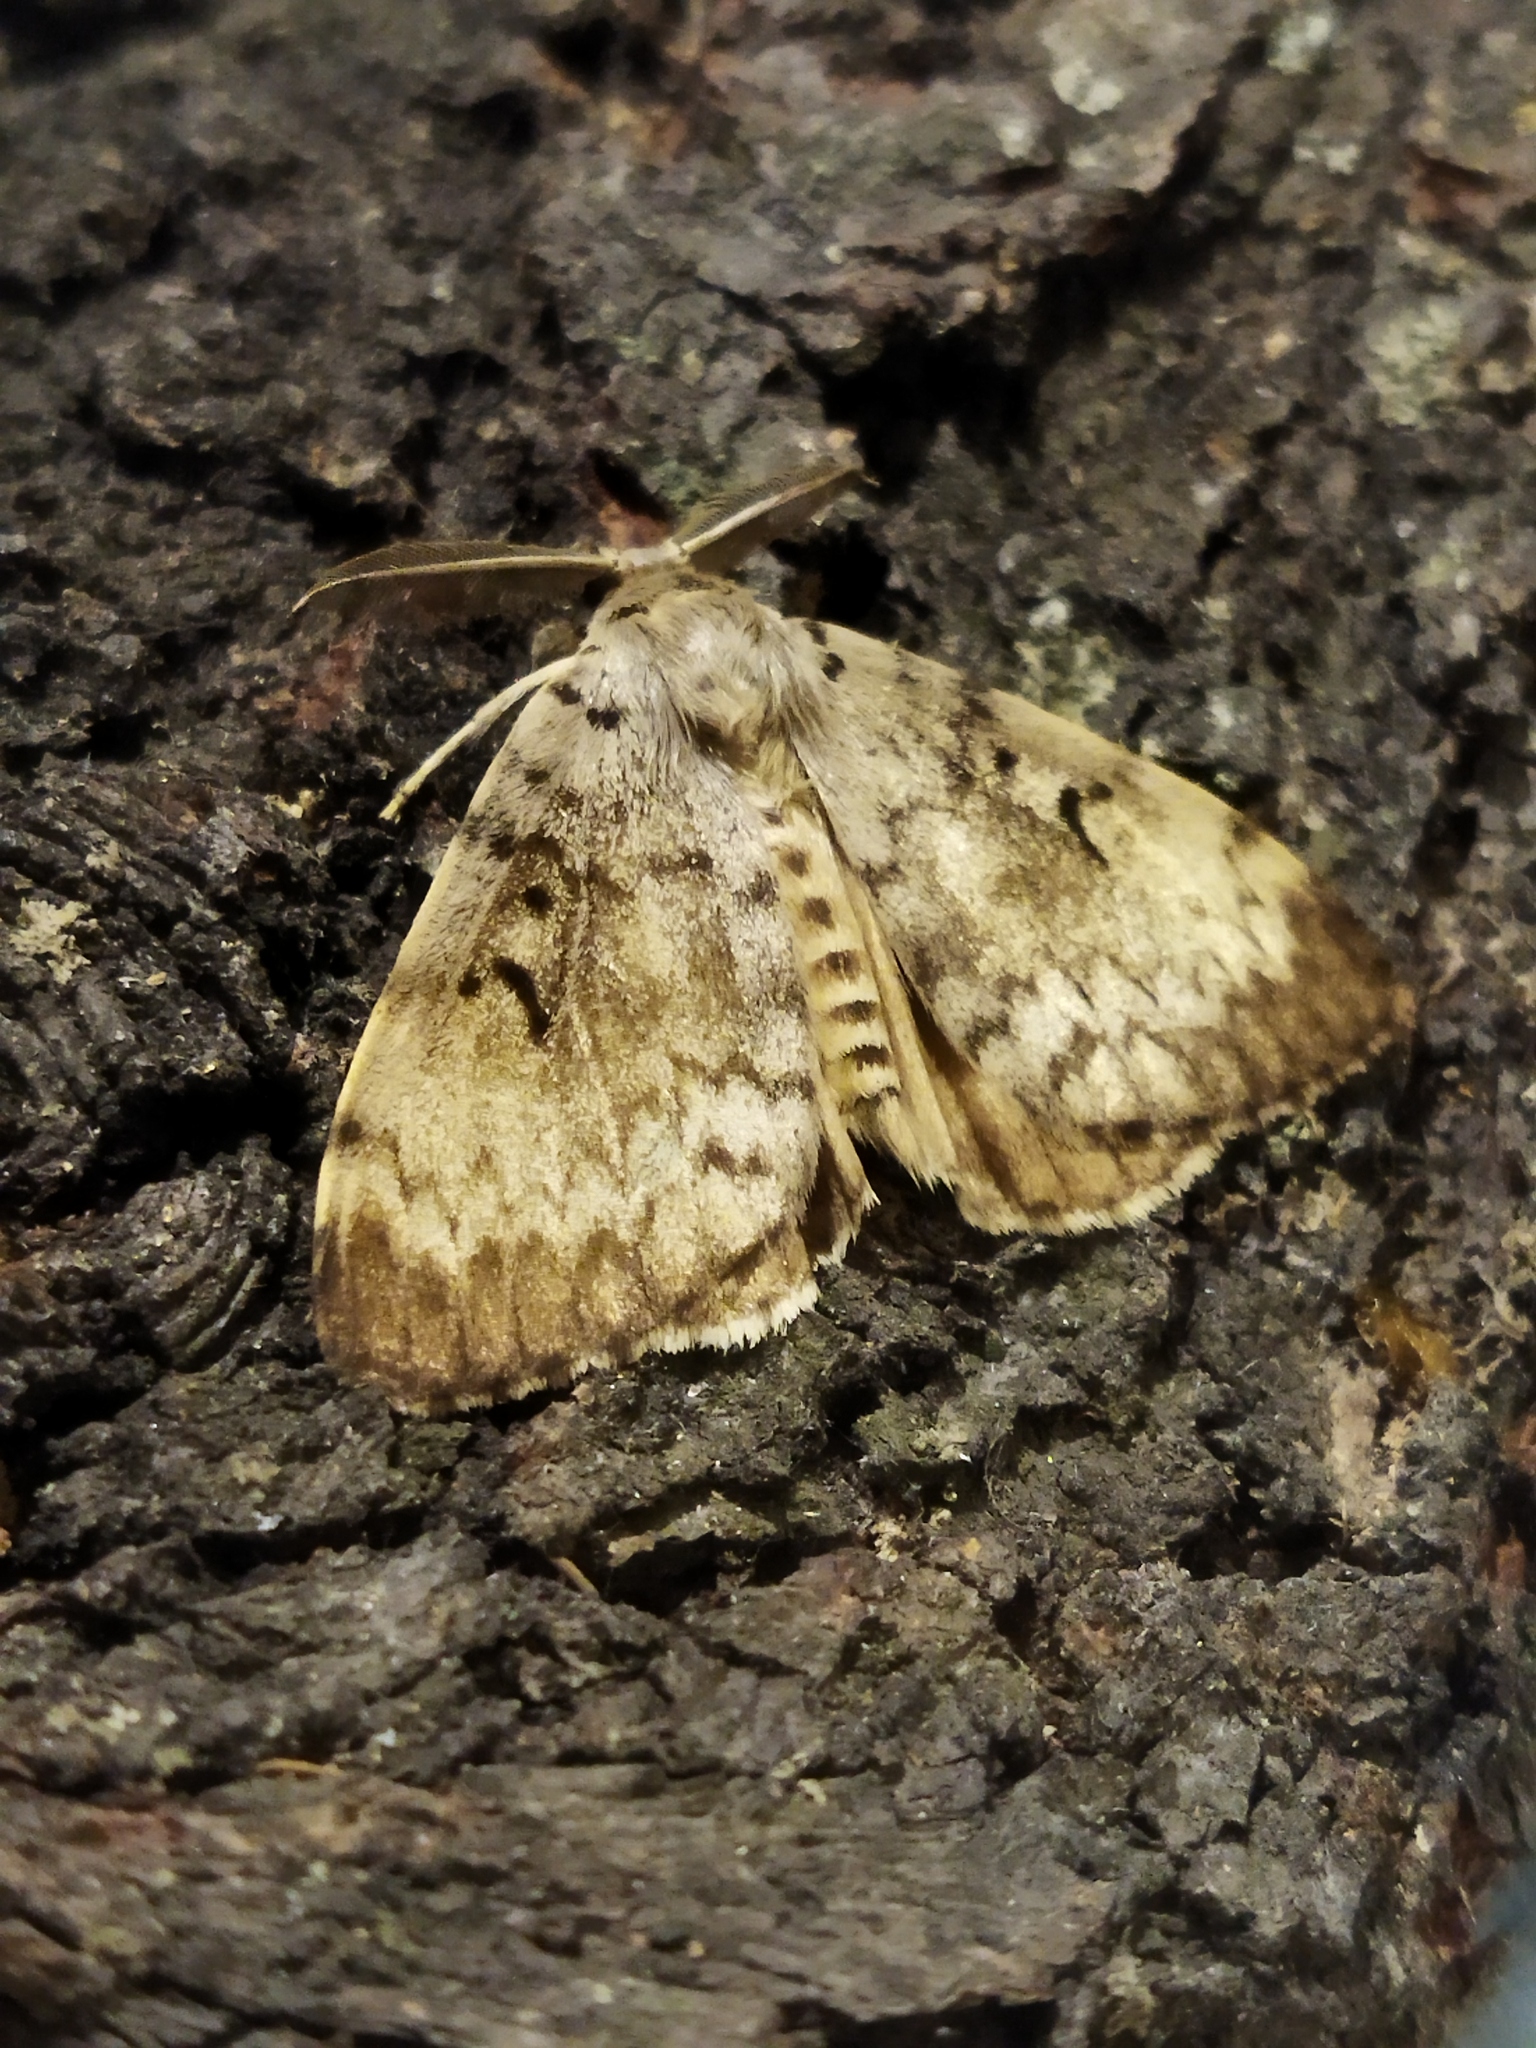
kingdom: Animalia
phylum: Arthropoda
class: Insecta
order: Lepidoptera
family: Erebidae
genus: Lymantria
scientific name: Lymantria dispar
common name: Gypsy moth
